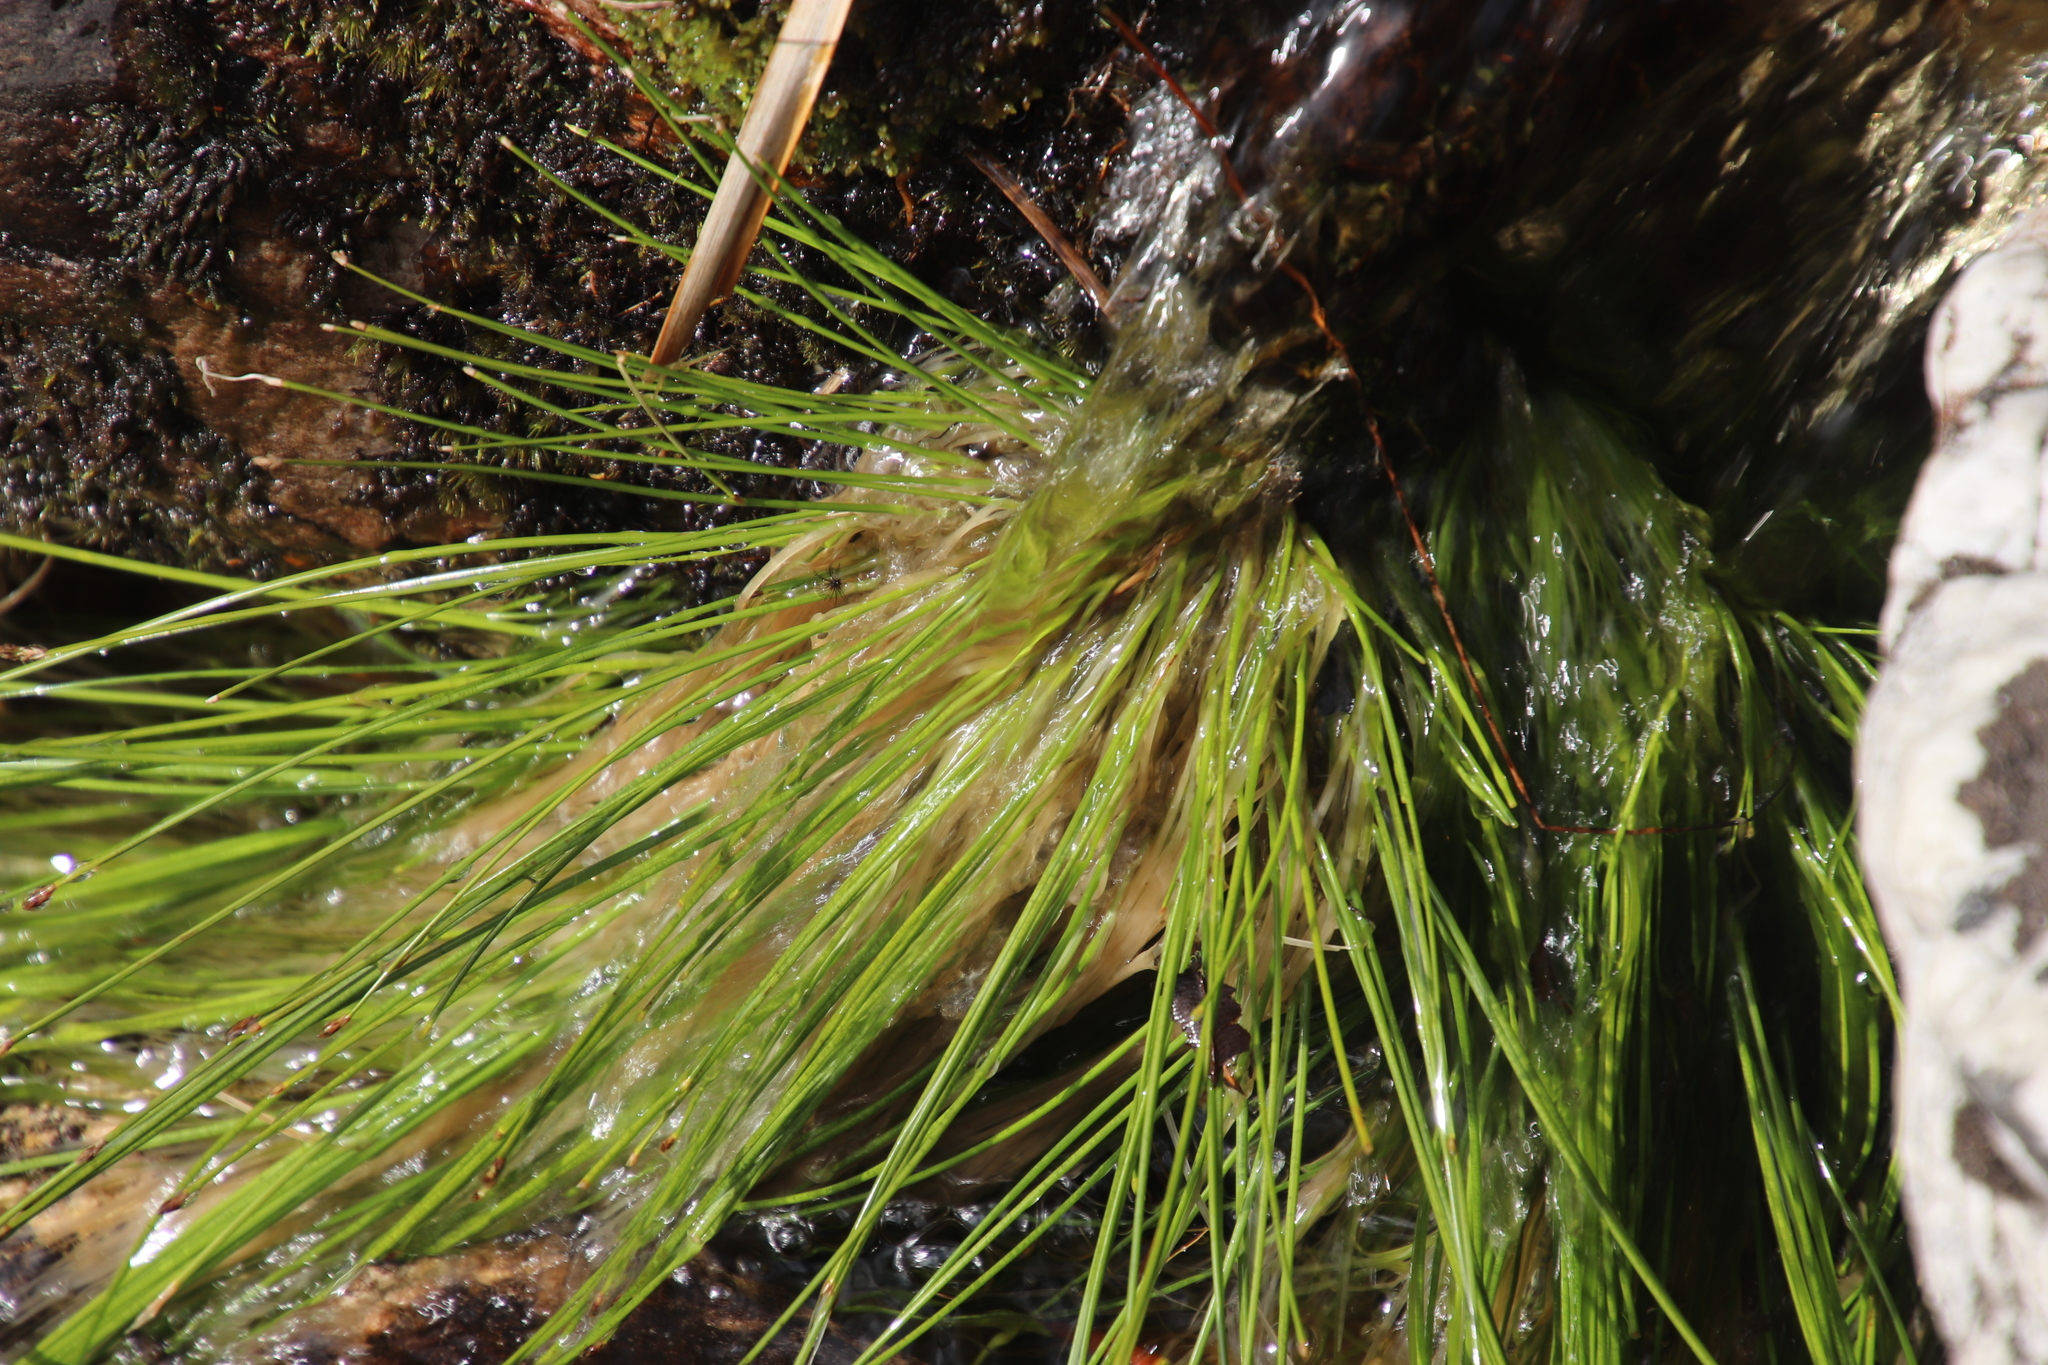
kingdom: Plantae
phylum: Tracheophyta
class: Liliopsida
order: Poales
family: Cyperaceae
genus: Isolepis
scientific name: Isolepis digitata
